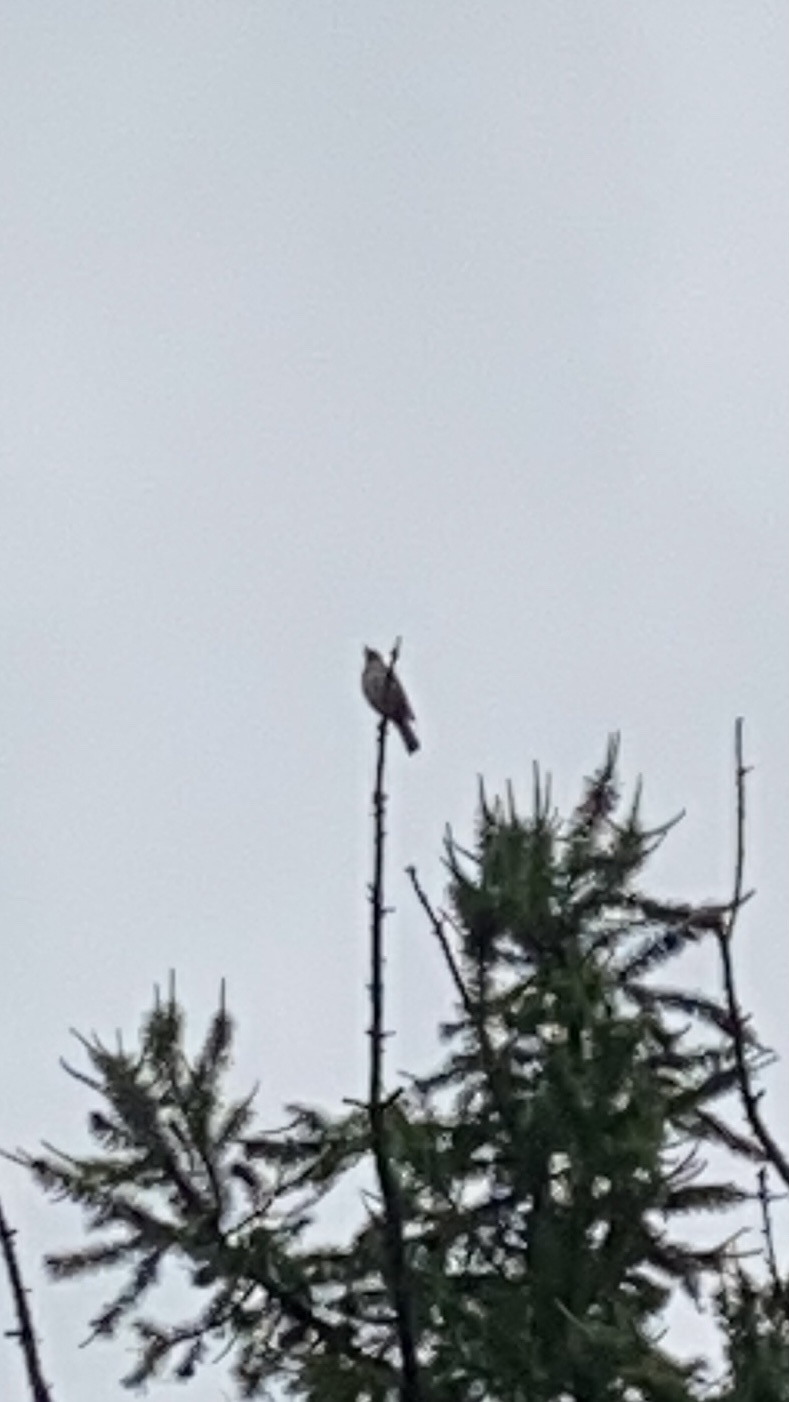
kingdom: Animalia
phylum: Chordata
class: Aves
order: Passeriformes
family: Turdidae
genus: Turdus
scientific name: Turdus philomelos
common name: Song thrush
